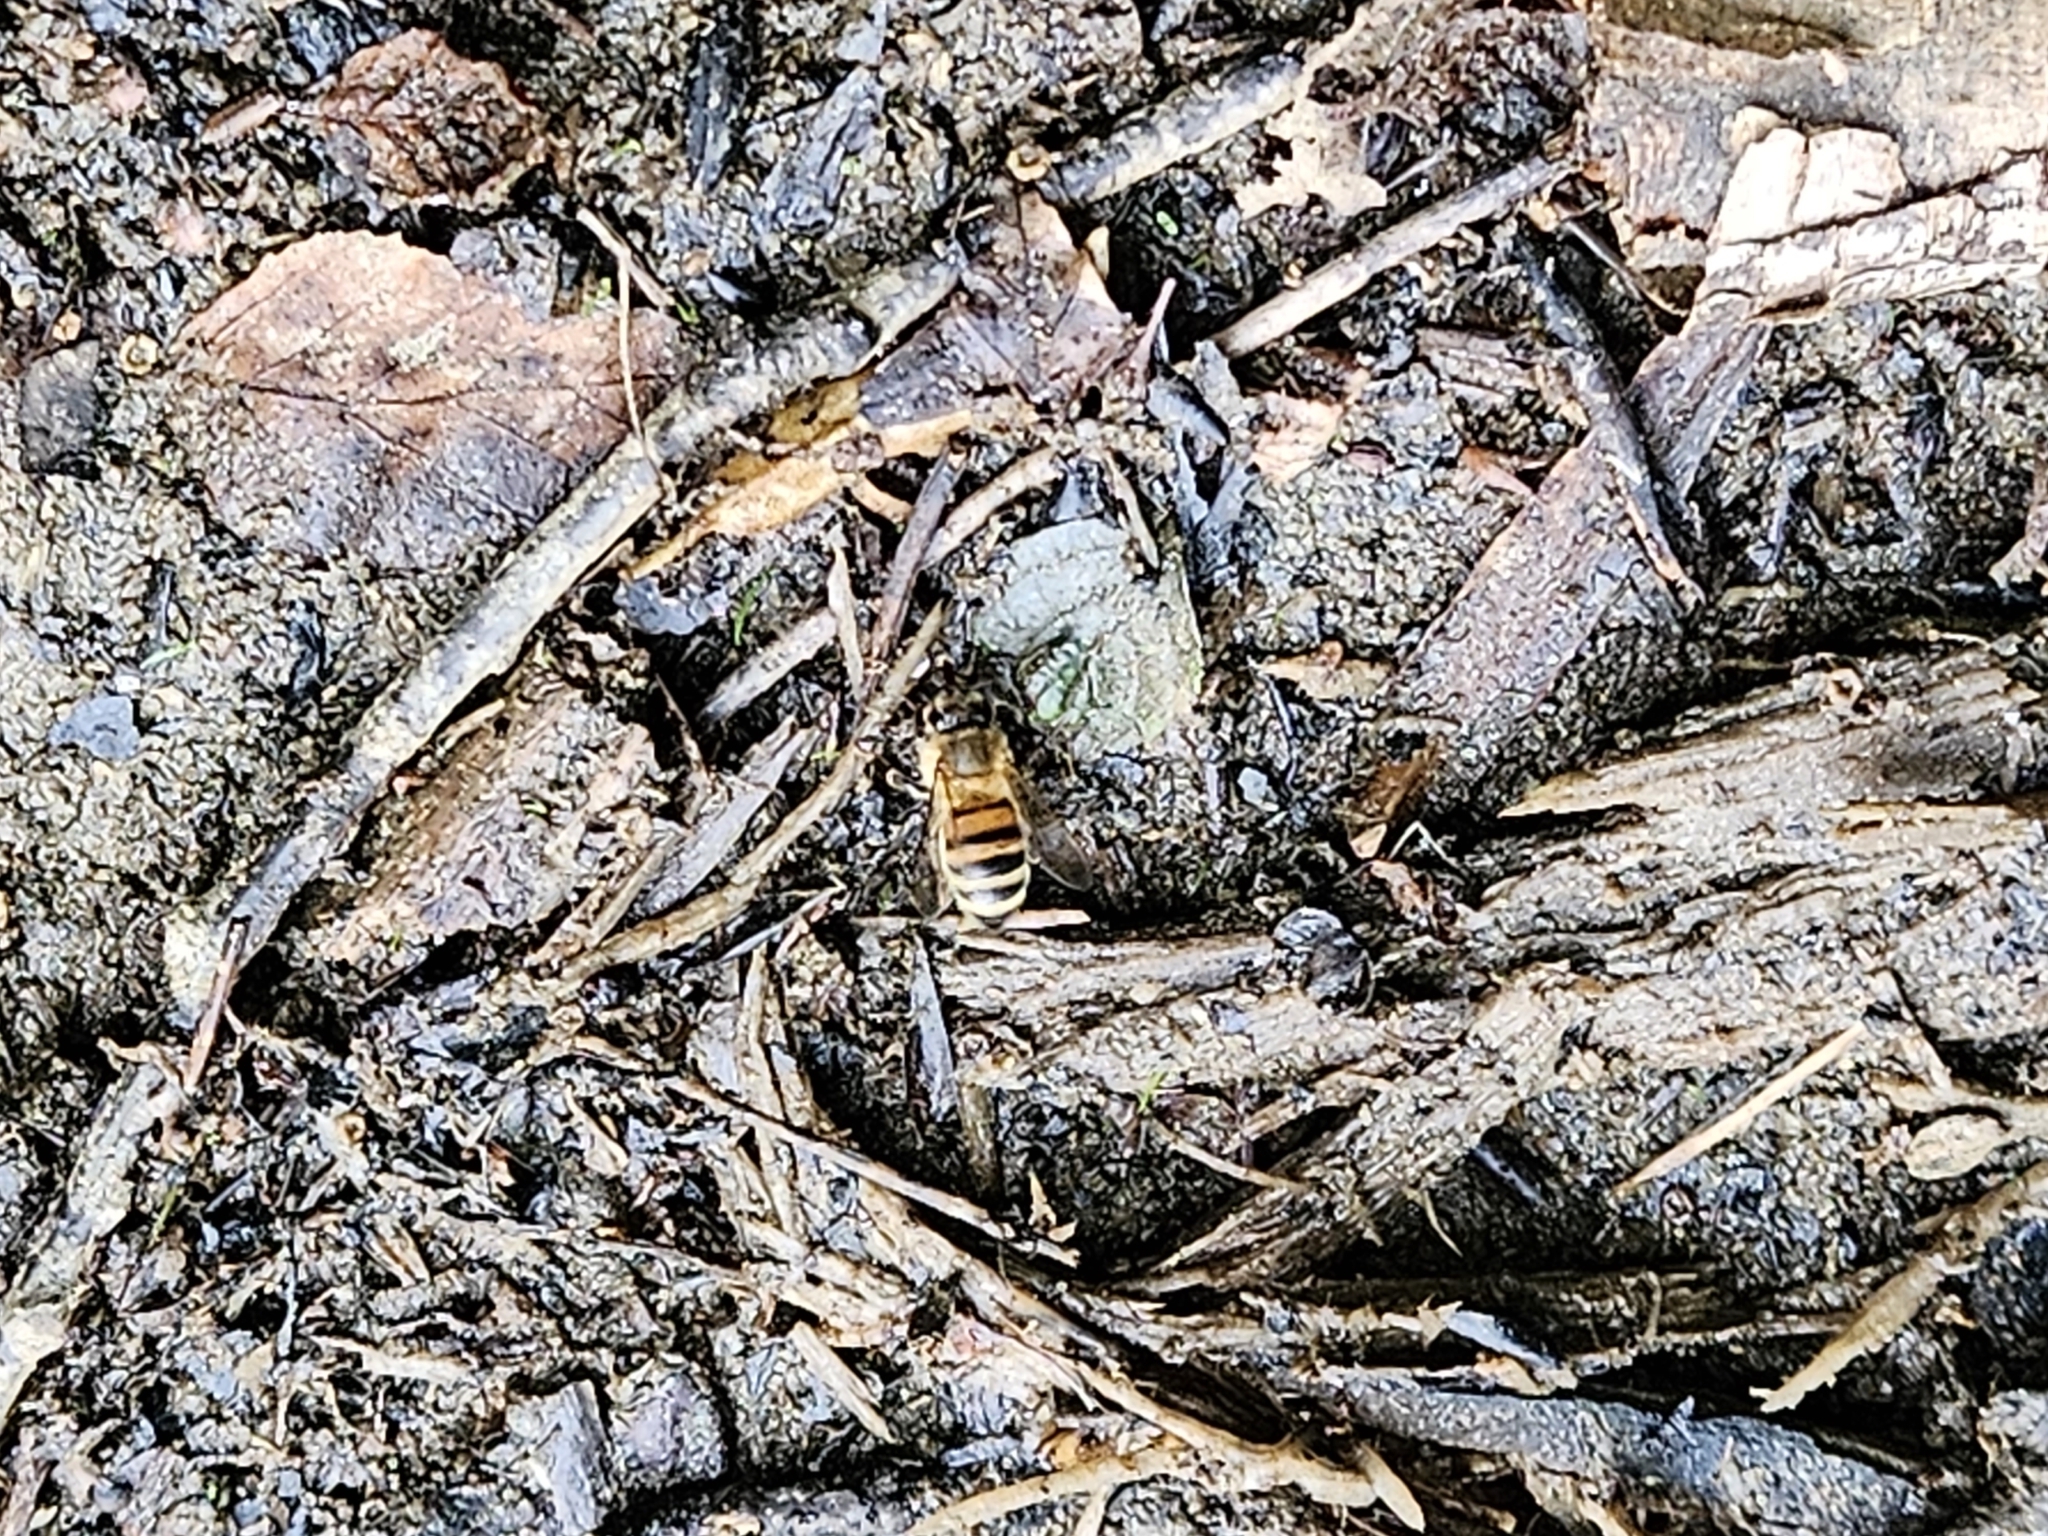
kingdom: Animalia
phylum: Arthropoda
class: Insecta
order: Hymenoptera
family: Apidae
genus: Apis
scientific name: Apis mellifera
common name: Honey bee
